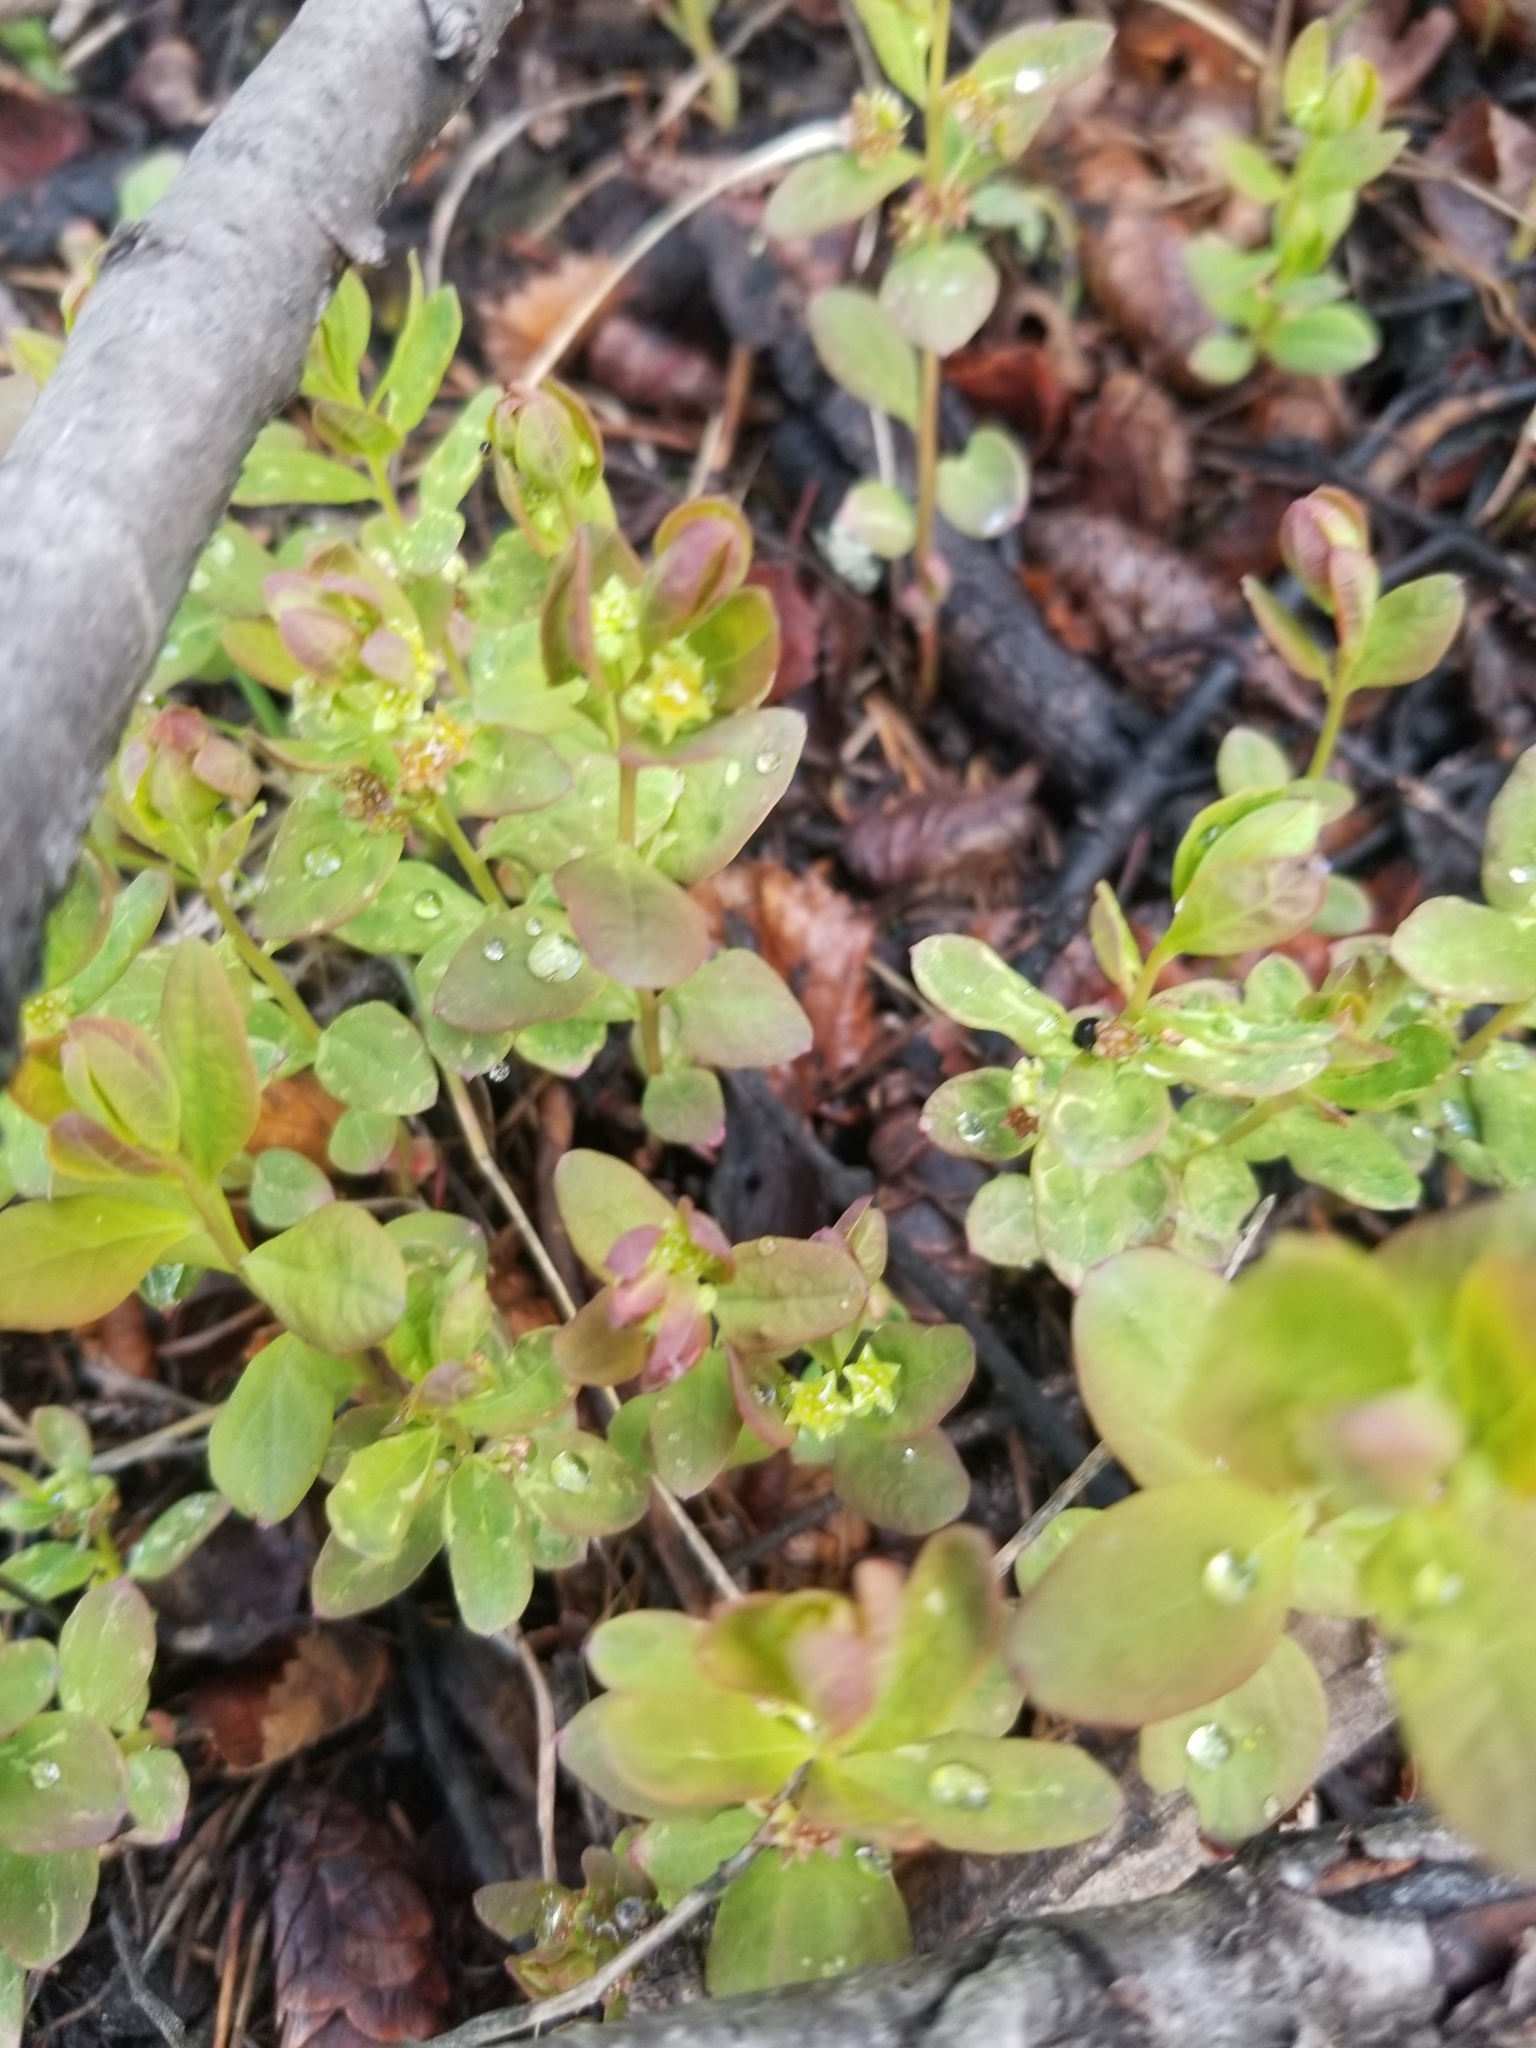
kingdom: Plantae
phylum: Tracheophyta
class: Magnoliopsida
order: Santalales
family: Comandraceae
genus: Geocaulon
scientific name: Geocaulon lividum
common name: Earthberry
